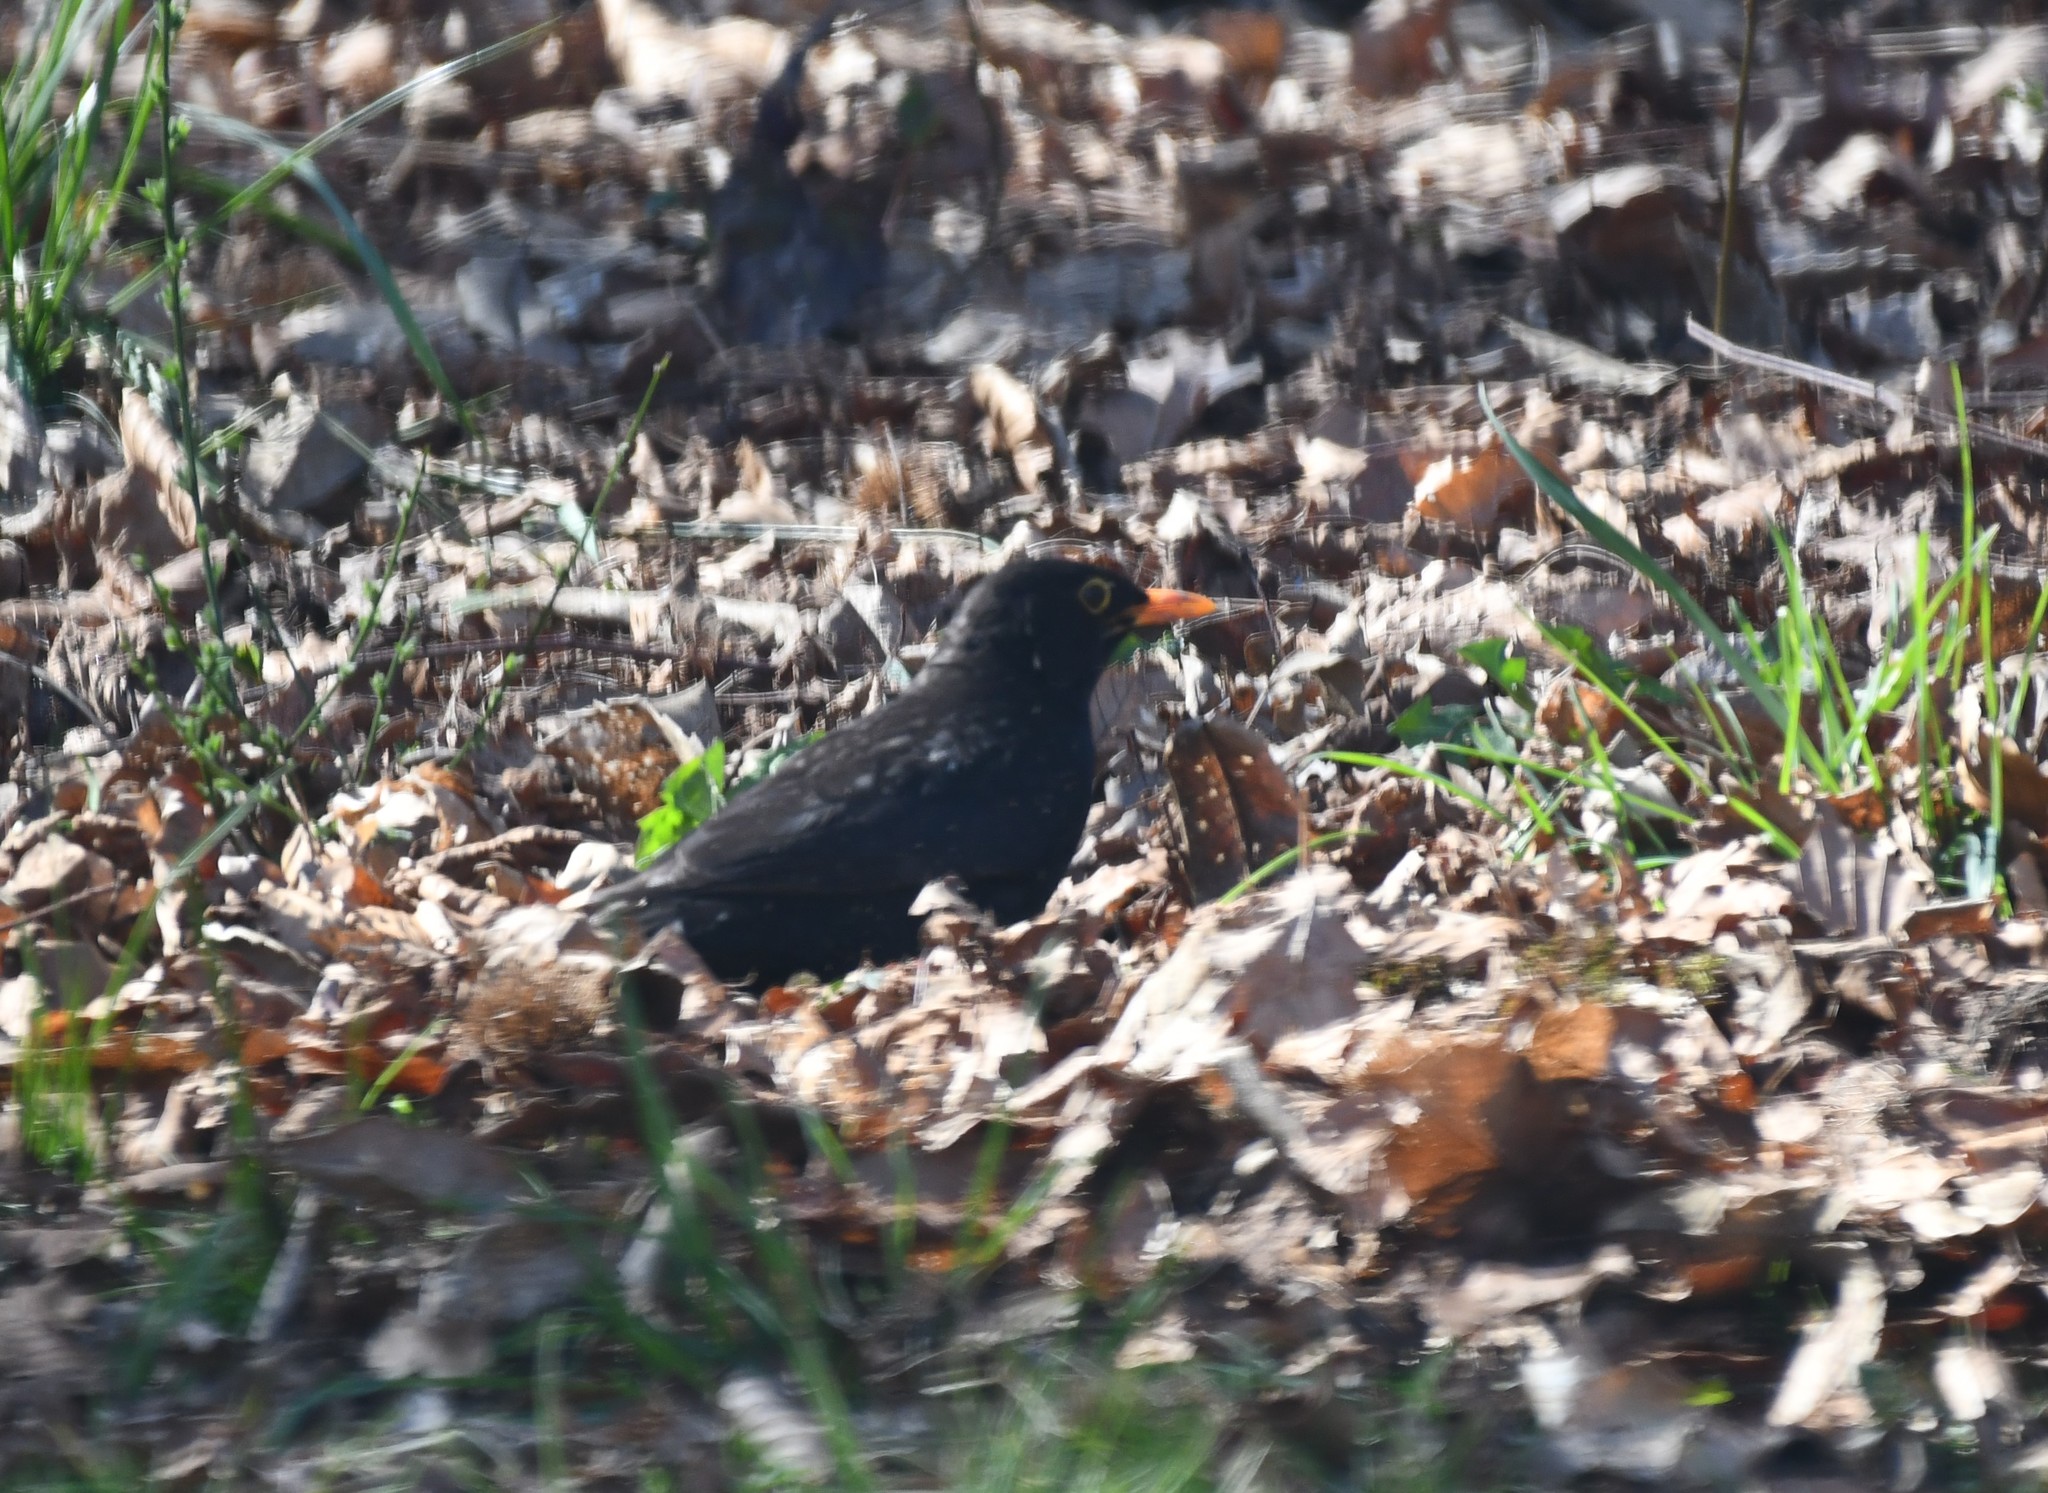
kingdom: Animalia
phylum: Chordata
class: Aves
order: Passeriformes
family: Turdidae
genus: Turdus
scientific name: Turdus merula
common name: Common blackbird
